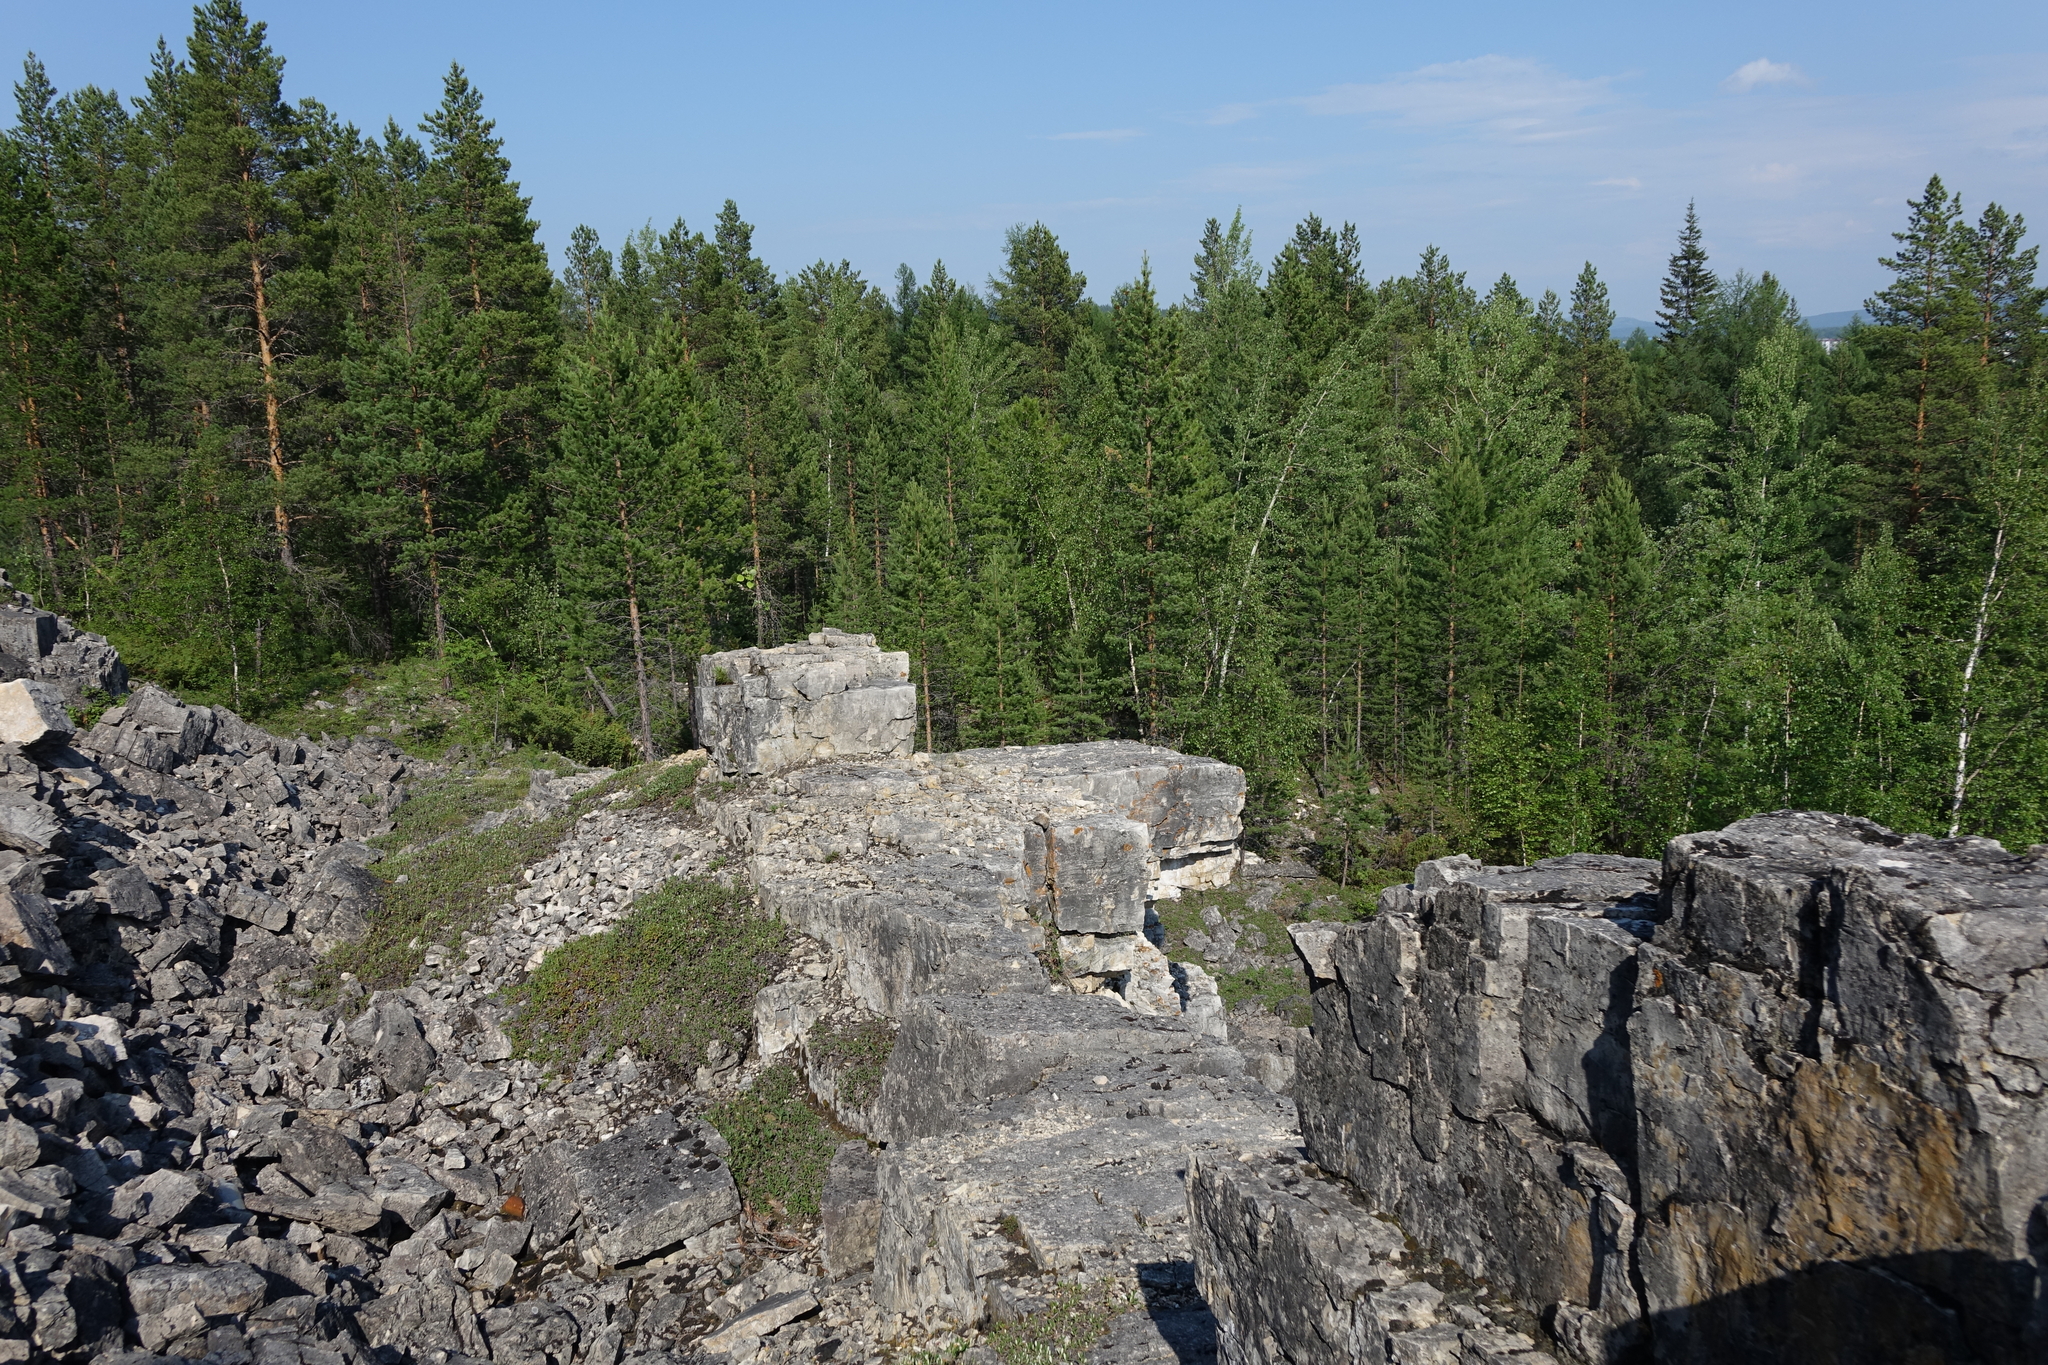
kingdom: Plantae
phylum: Tracheophyta
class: Pinopsida
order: Pinales
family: Pinaceae
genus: Pinus
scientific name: Pinus sylvestris
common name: Scots pine
